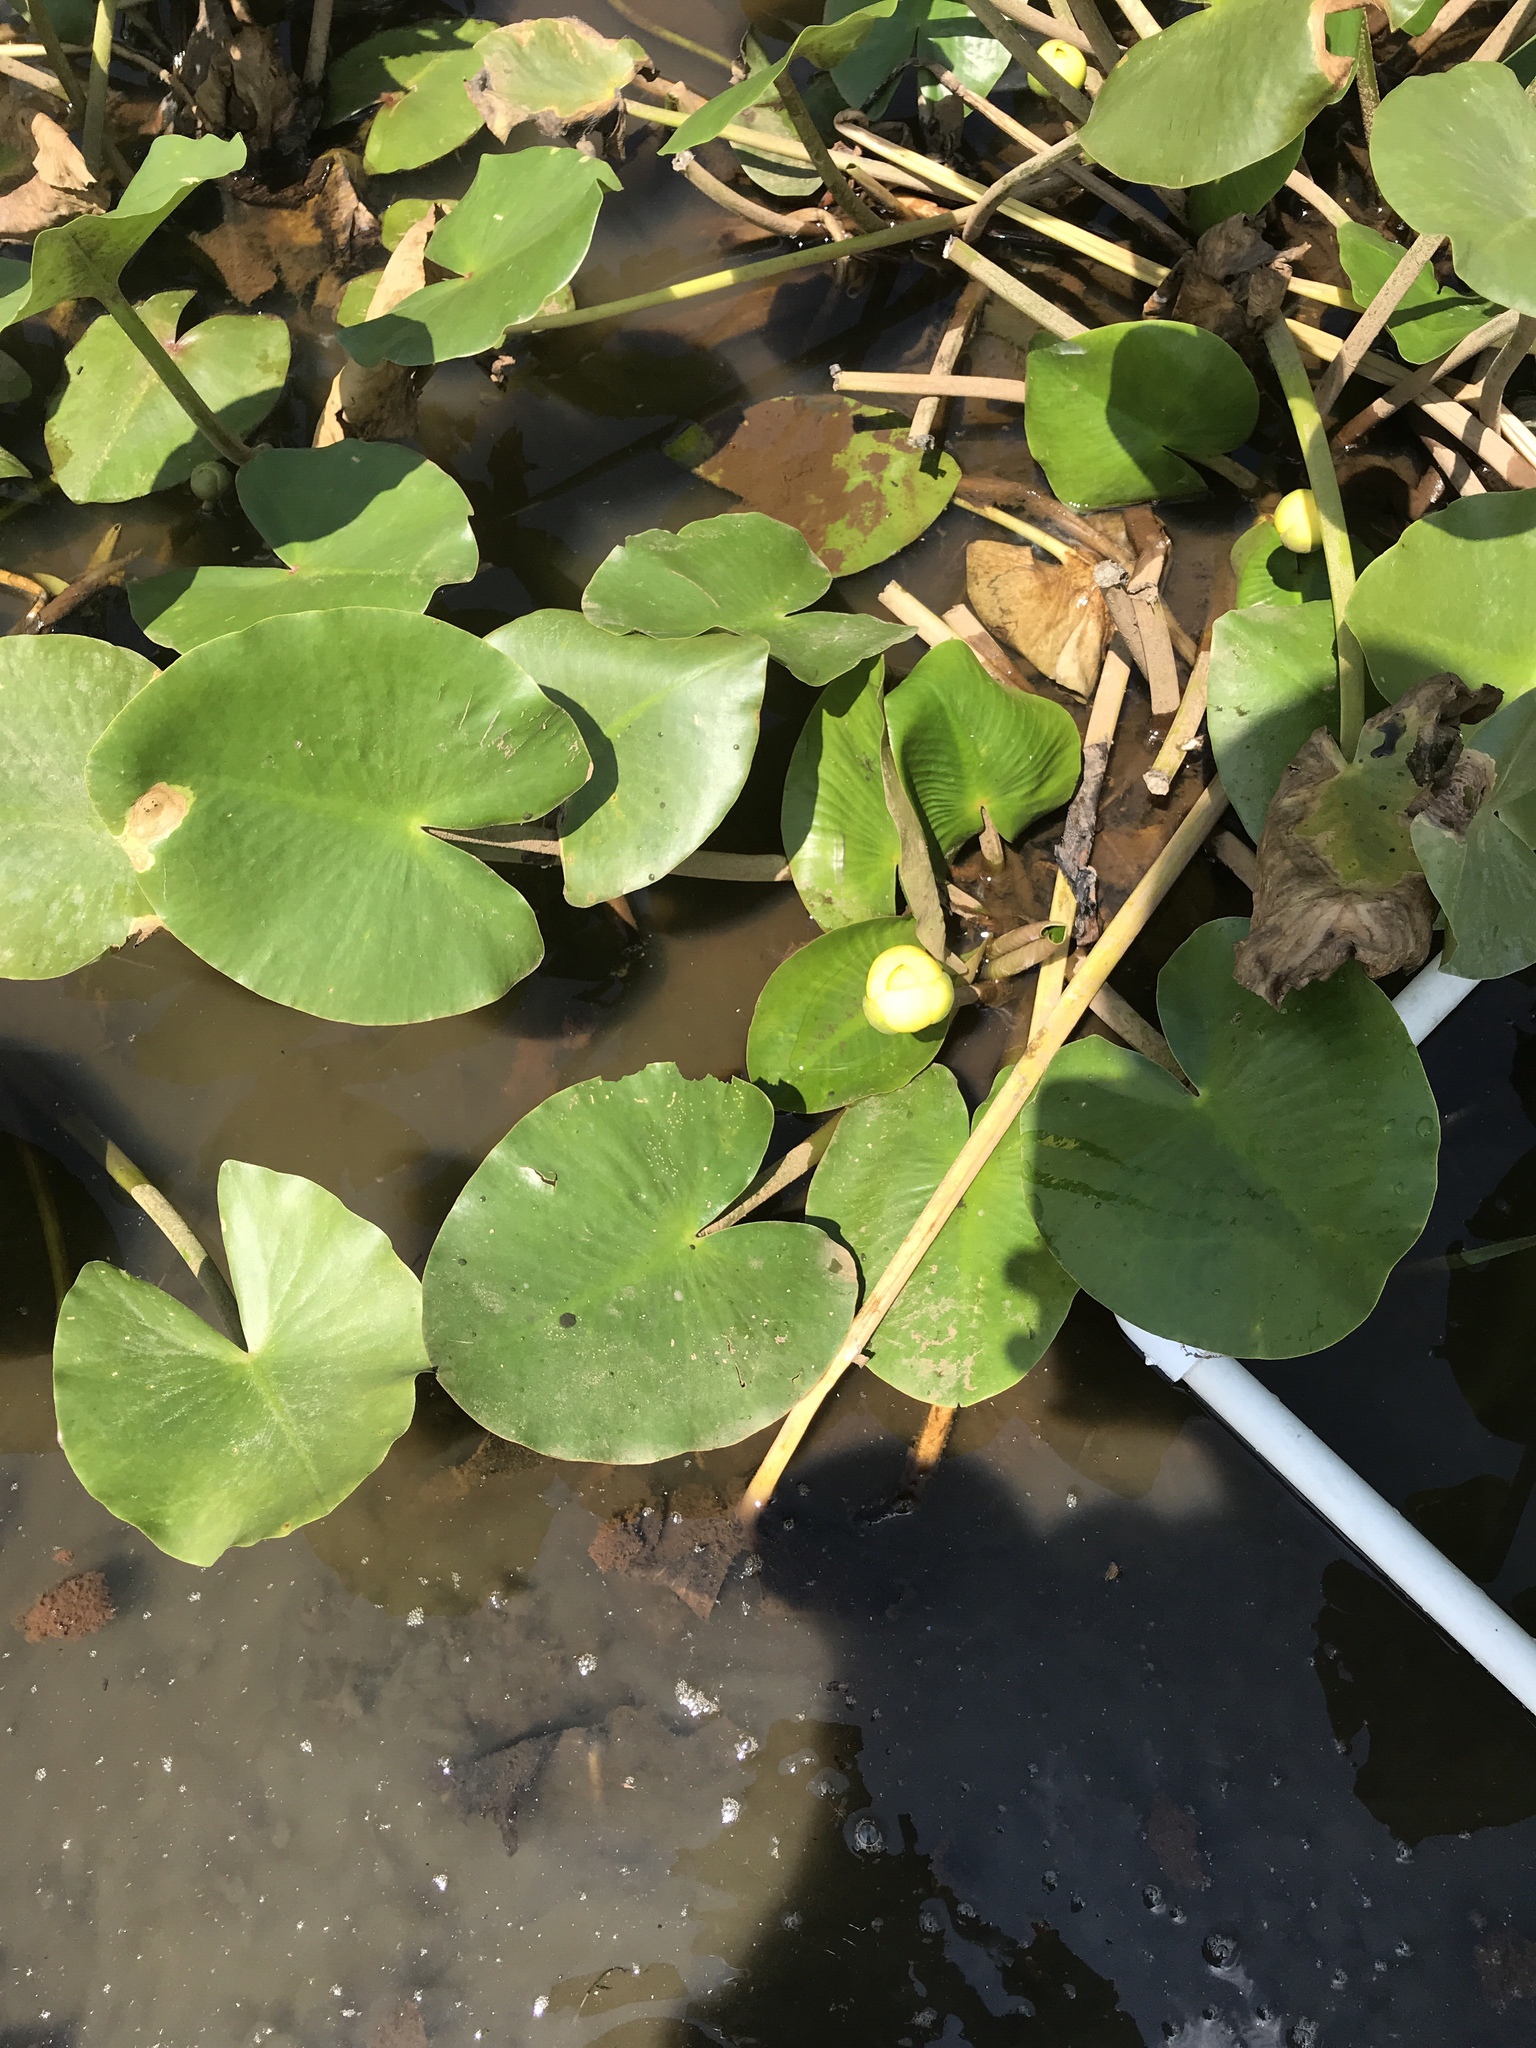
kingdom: Plantae
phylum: Tracheophyta
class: Magnoliopsida
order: Nymphaeales
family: Nymphaeaceae
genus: Nuphar
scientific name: Nuphar advena
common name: Spatter-dock
